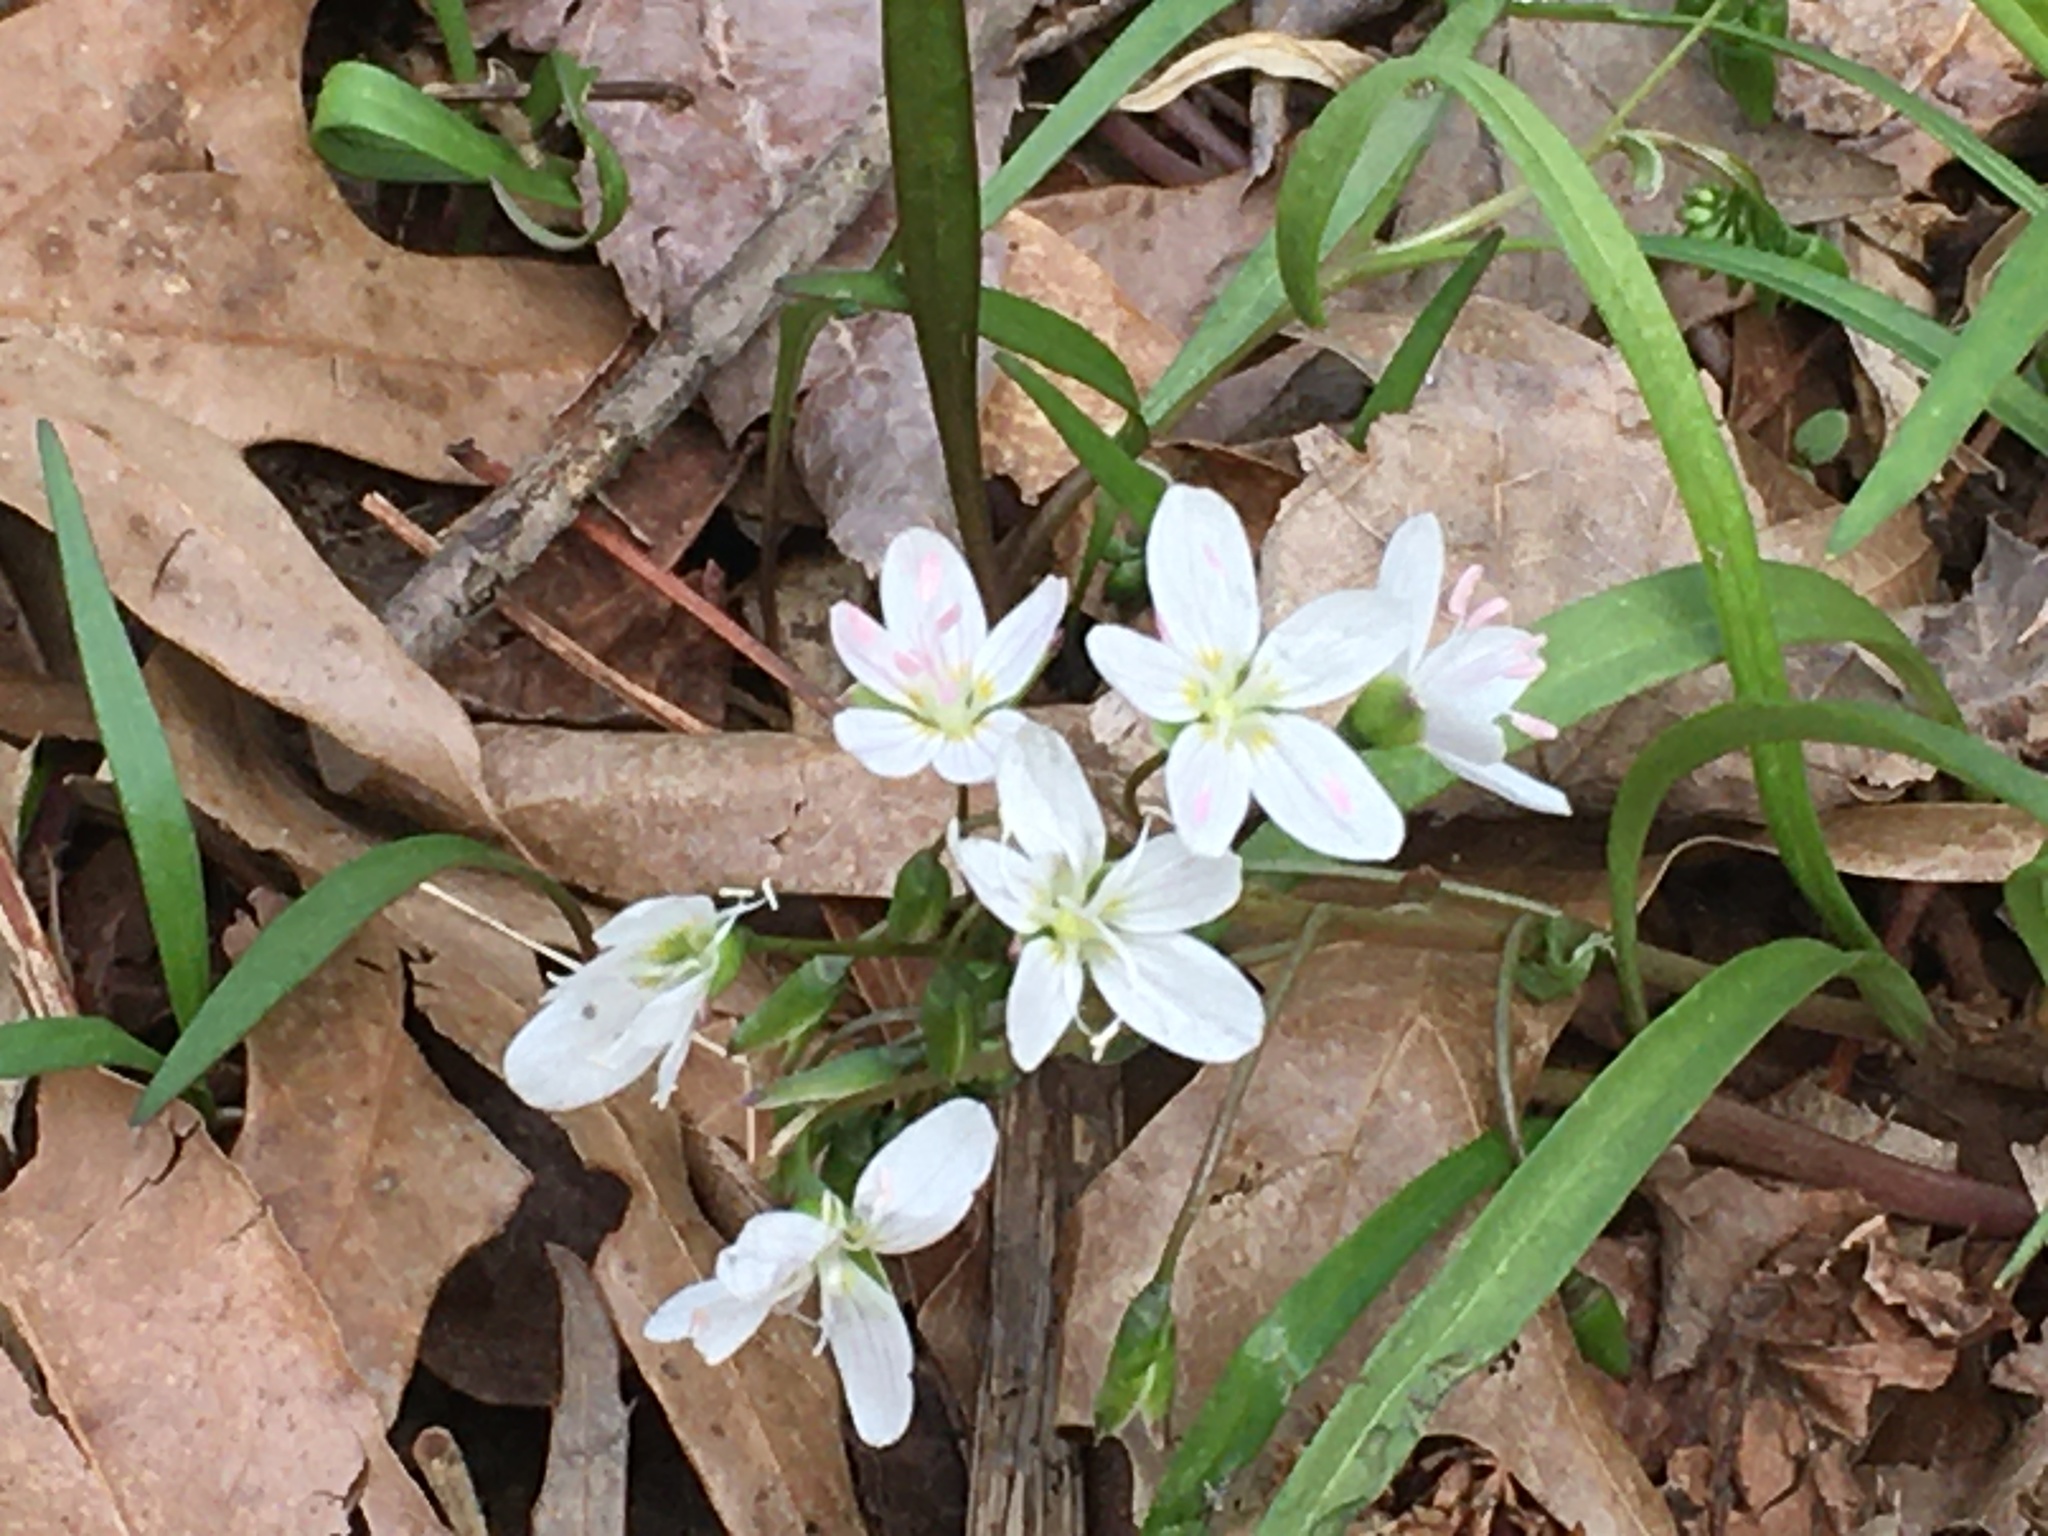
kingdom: Plantae
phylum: Tracheophyta
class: Magnoliopsida
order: Caryophyllales
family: Montiaceae
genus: Claytonia
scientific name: Claytonia virginica
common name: Virginia springbeauty
